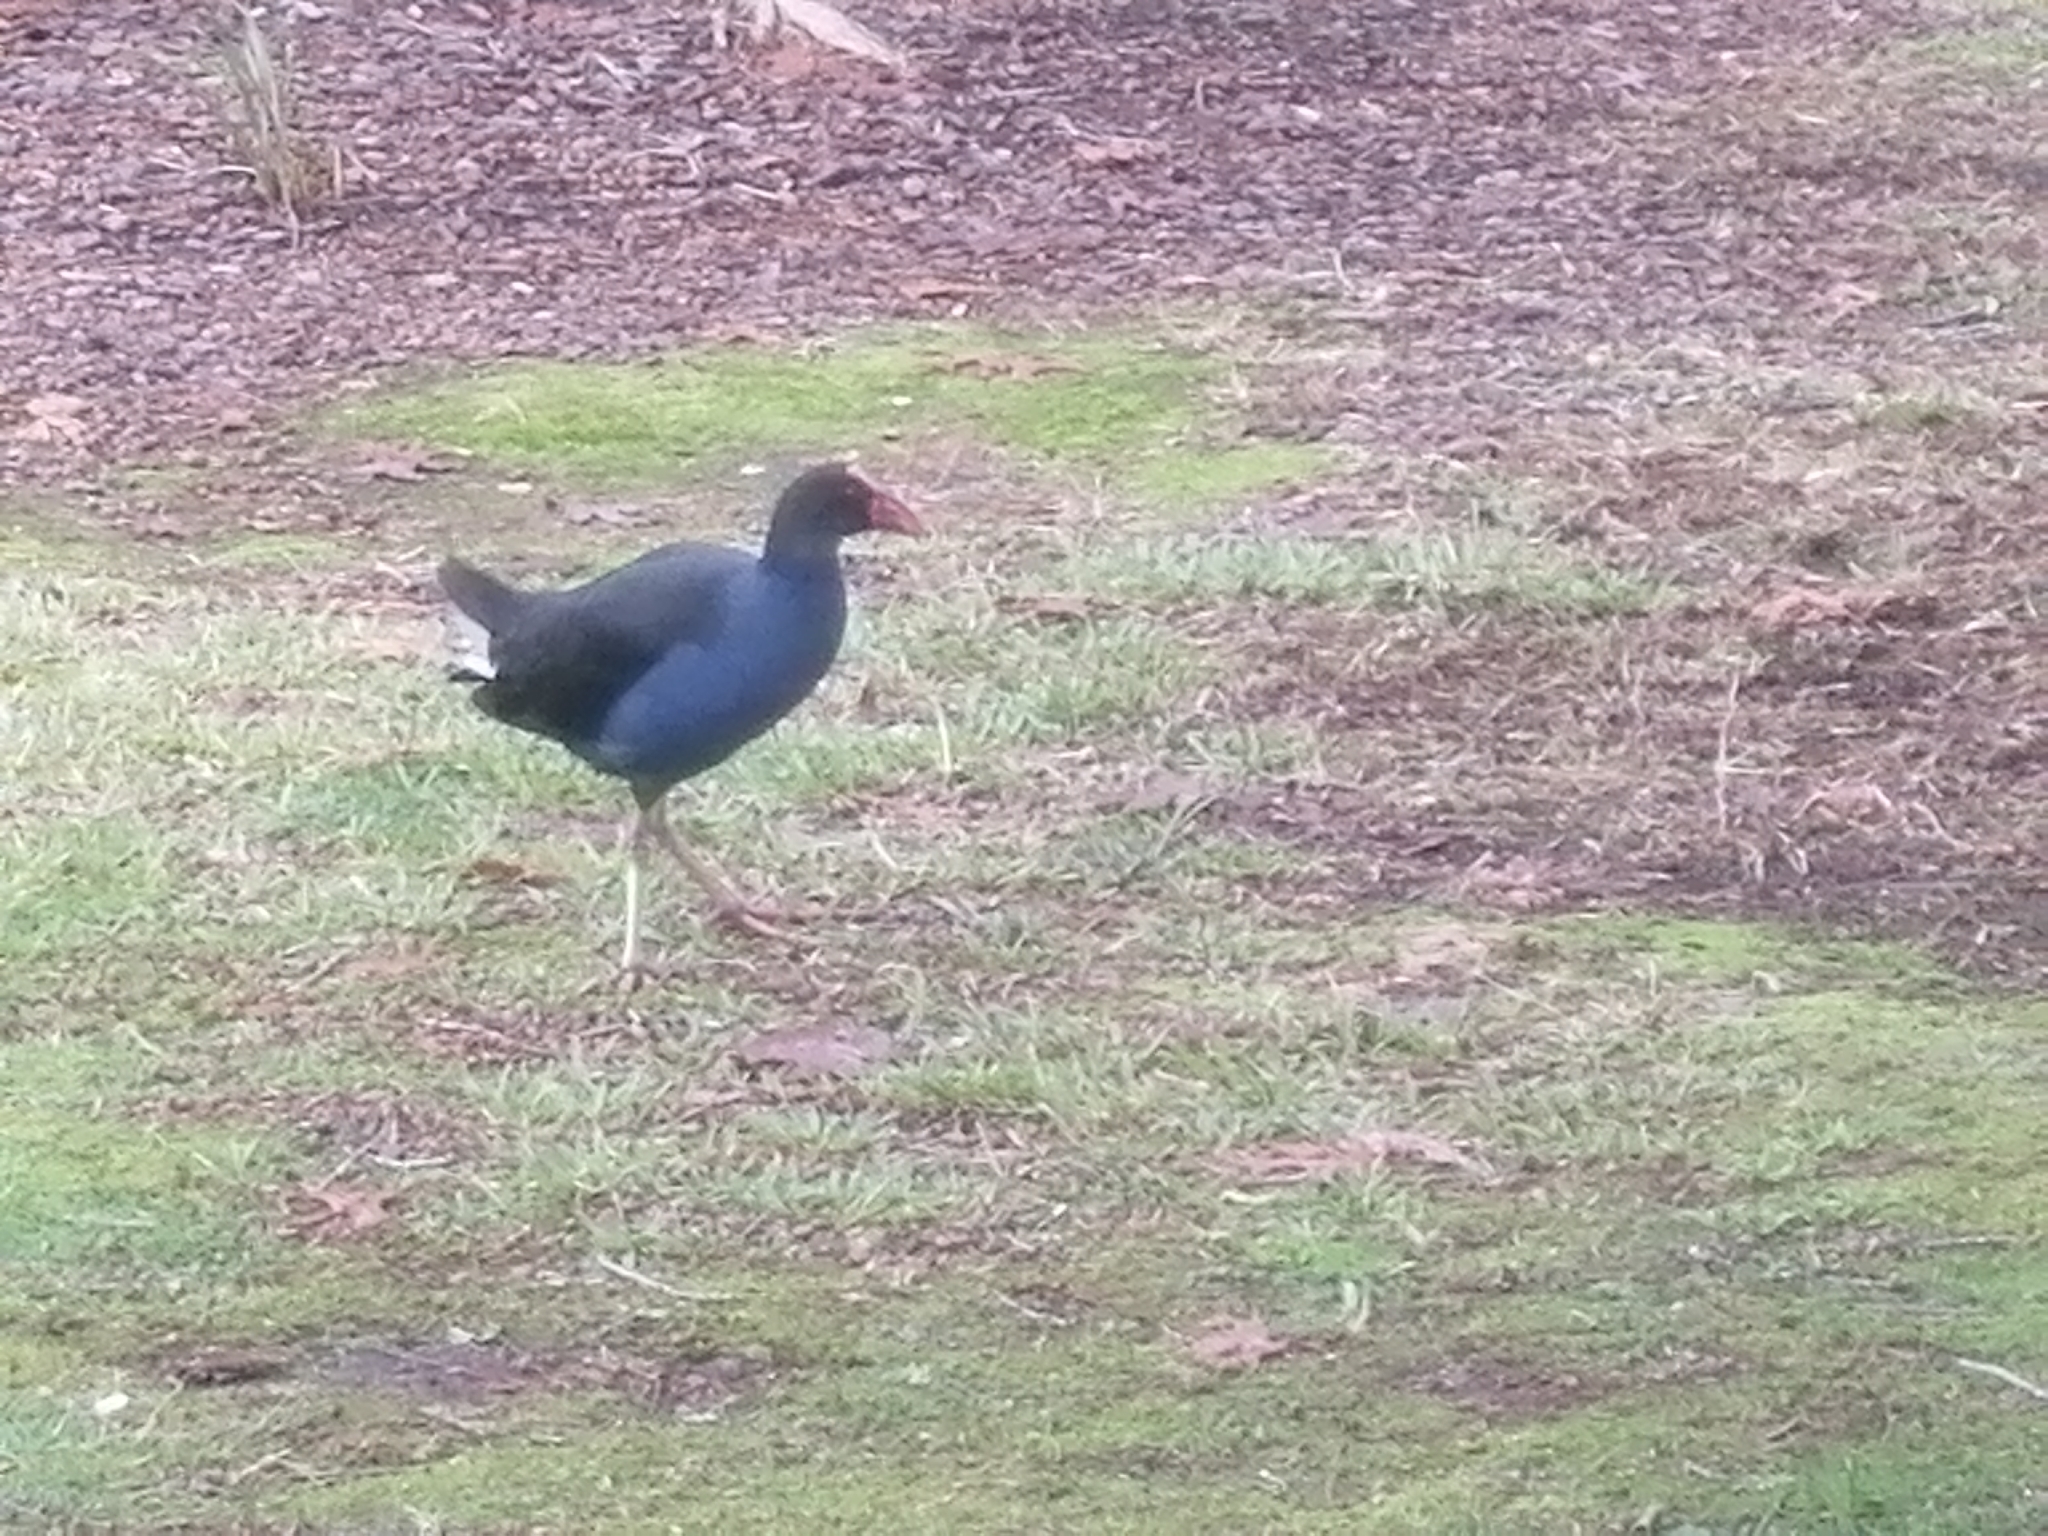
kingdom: Animalia
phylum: Chordata
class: Aves
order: Gruiformes
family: Rallidae
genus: Porphyrio
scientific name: Porphyrio melanotus
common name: Australasian swamphen
